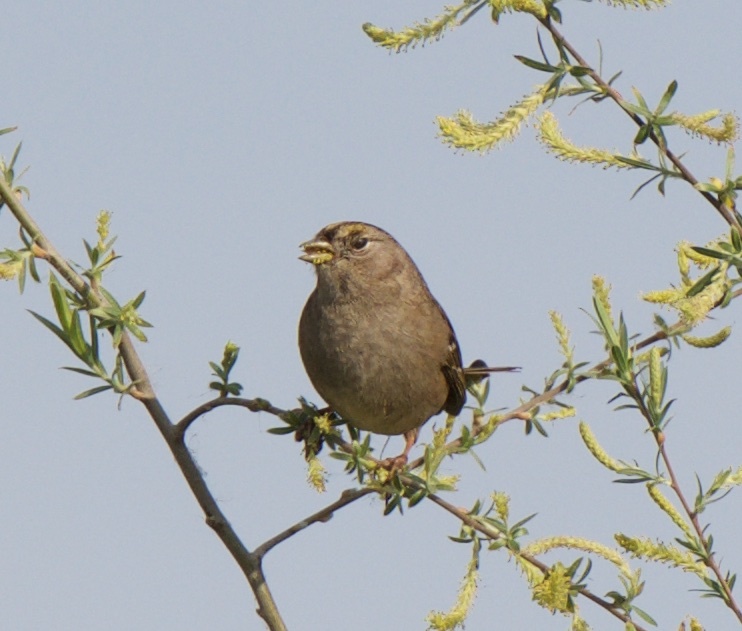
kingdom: Animalia
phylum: Chordata
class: Aves
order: Passeriformes
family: Passerellidae
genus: Zonotrichia
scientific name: Zonotrichia atricapilla
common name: Golden-crowned sparrow
